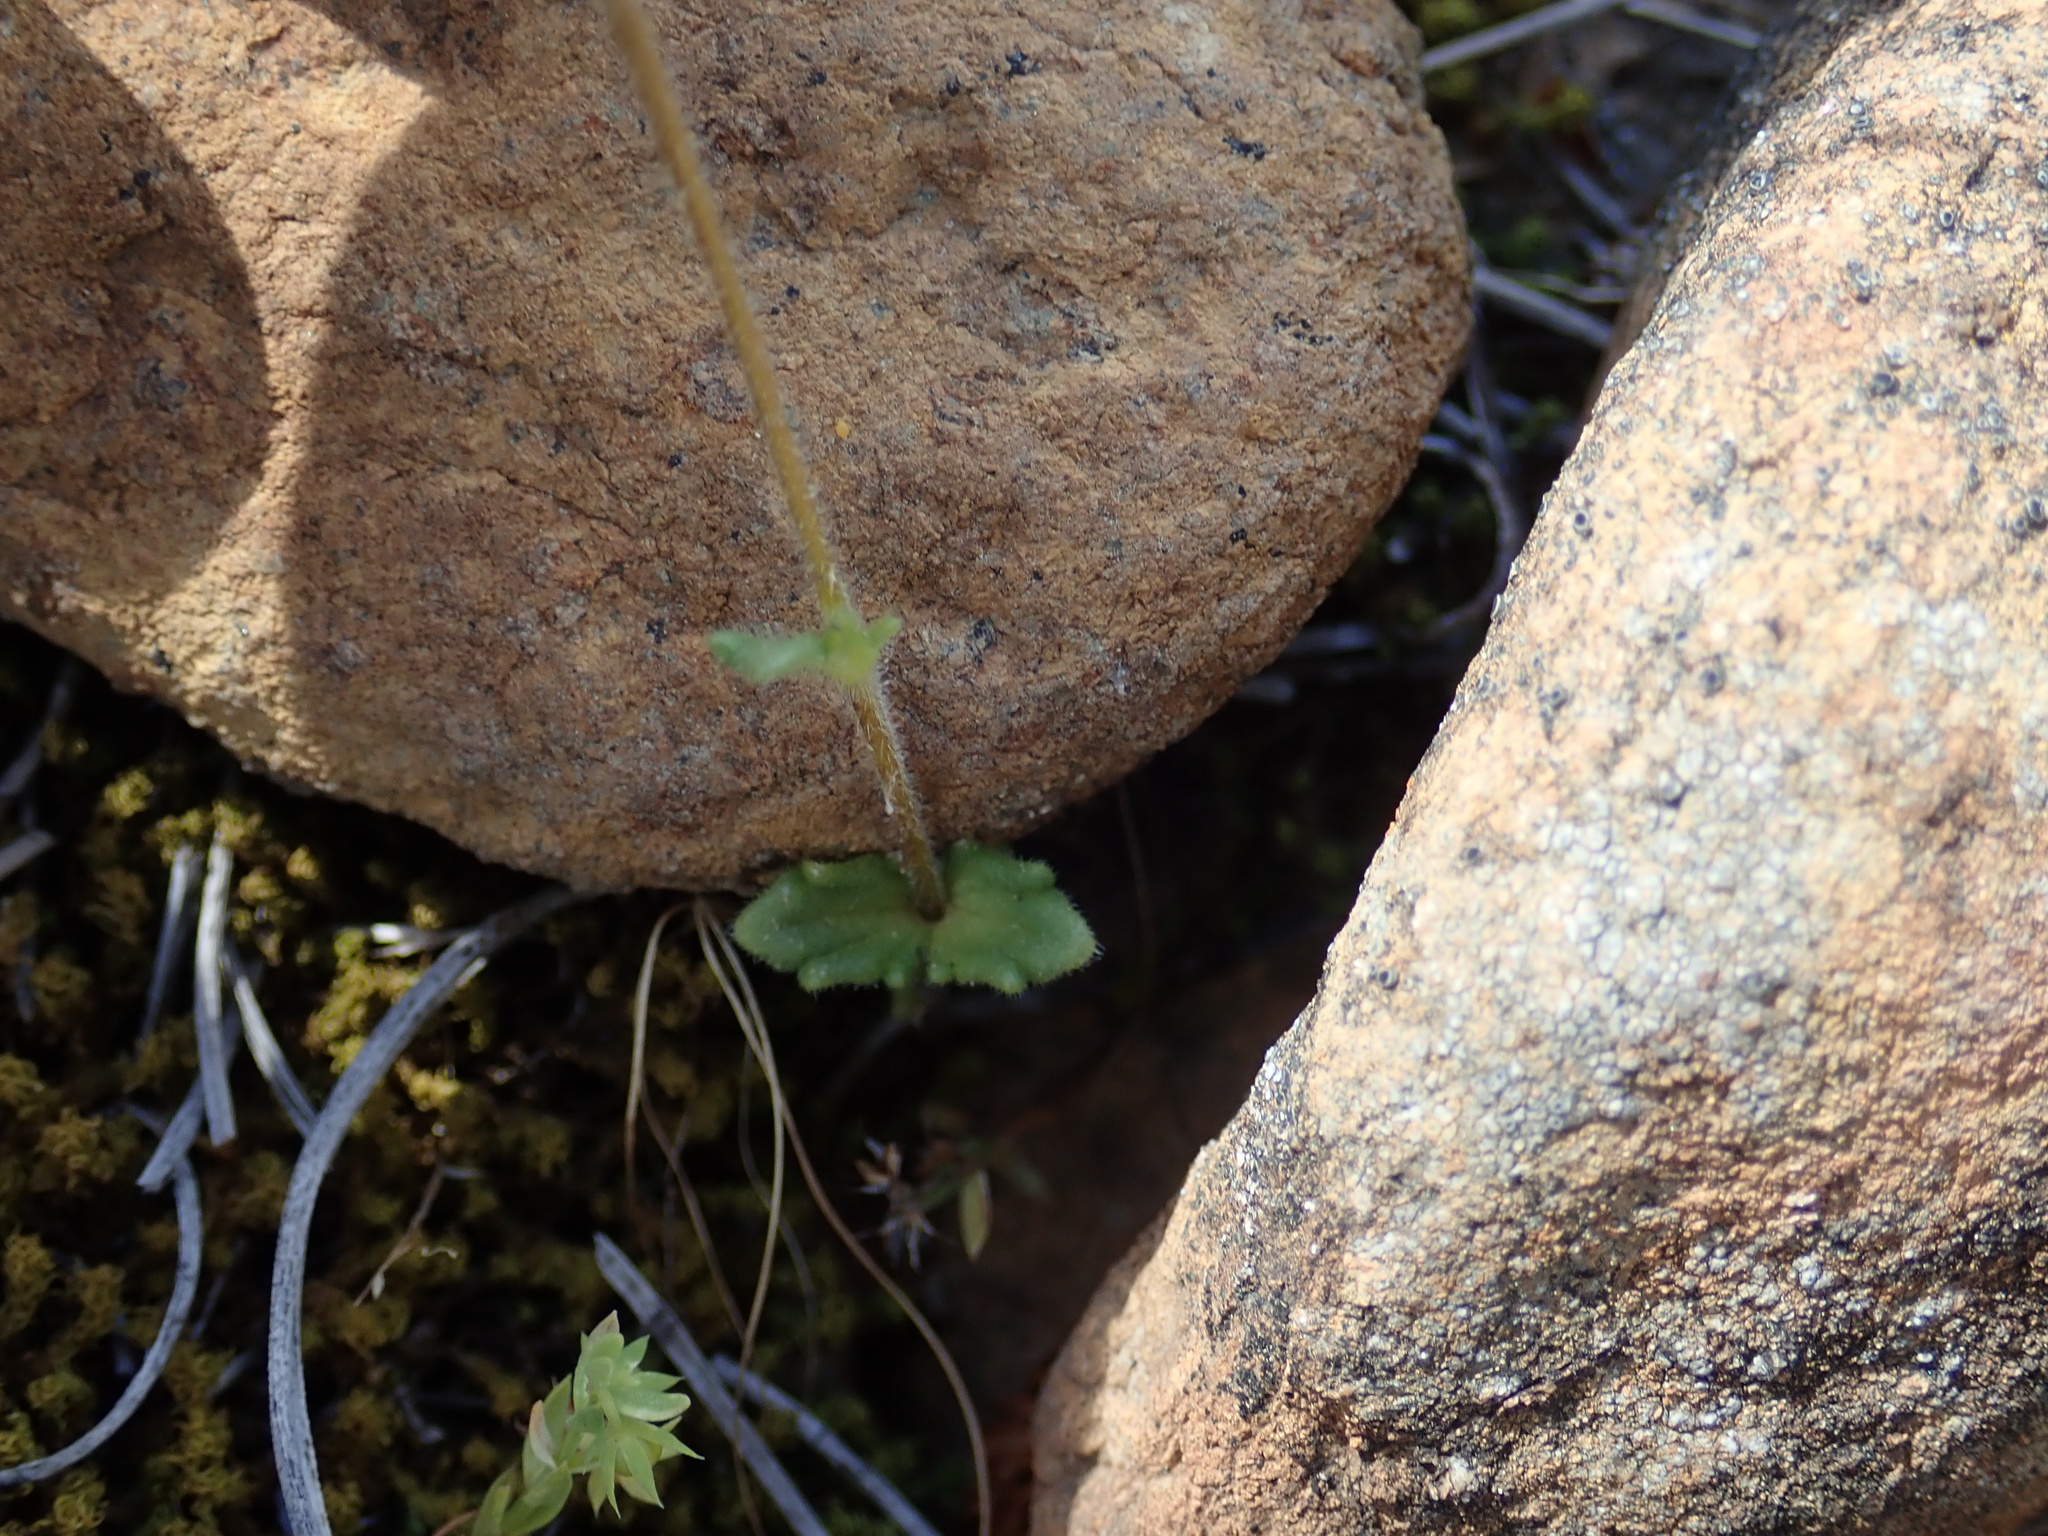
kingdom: Plantae
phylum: Tracheophyta
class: Magnoliopsida
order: Lamiales
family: Orobanchaceae
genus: Parentucellia
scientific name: Parentucellia latifolia
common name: Broadleaf glandweed
